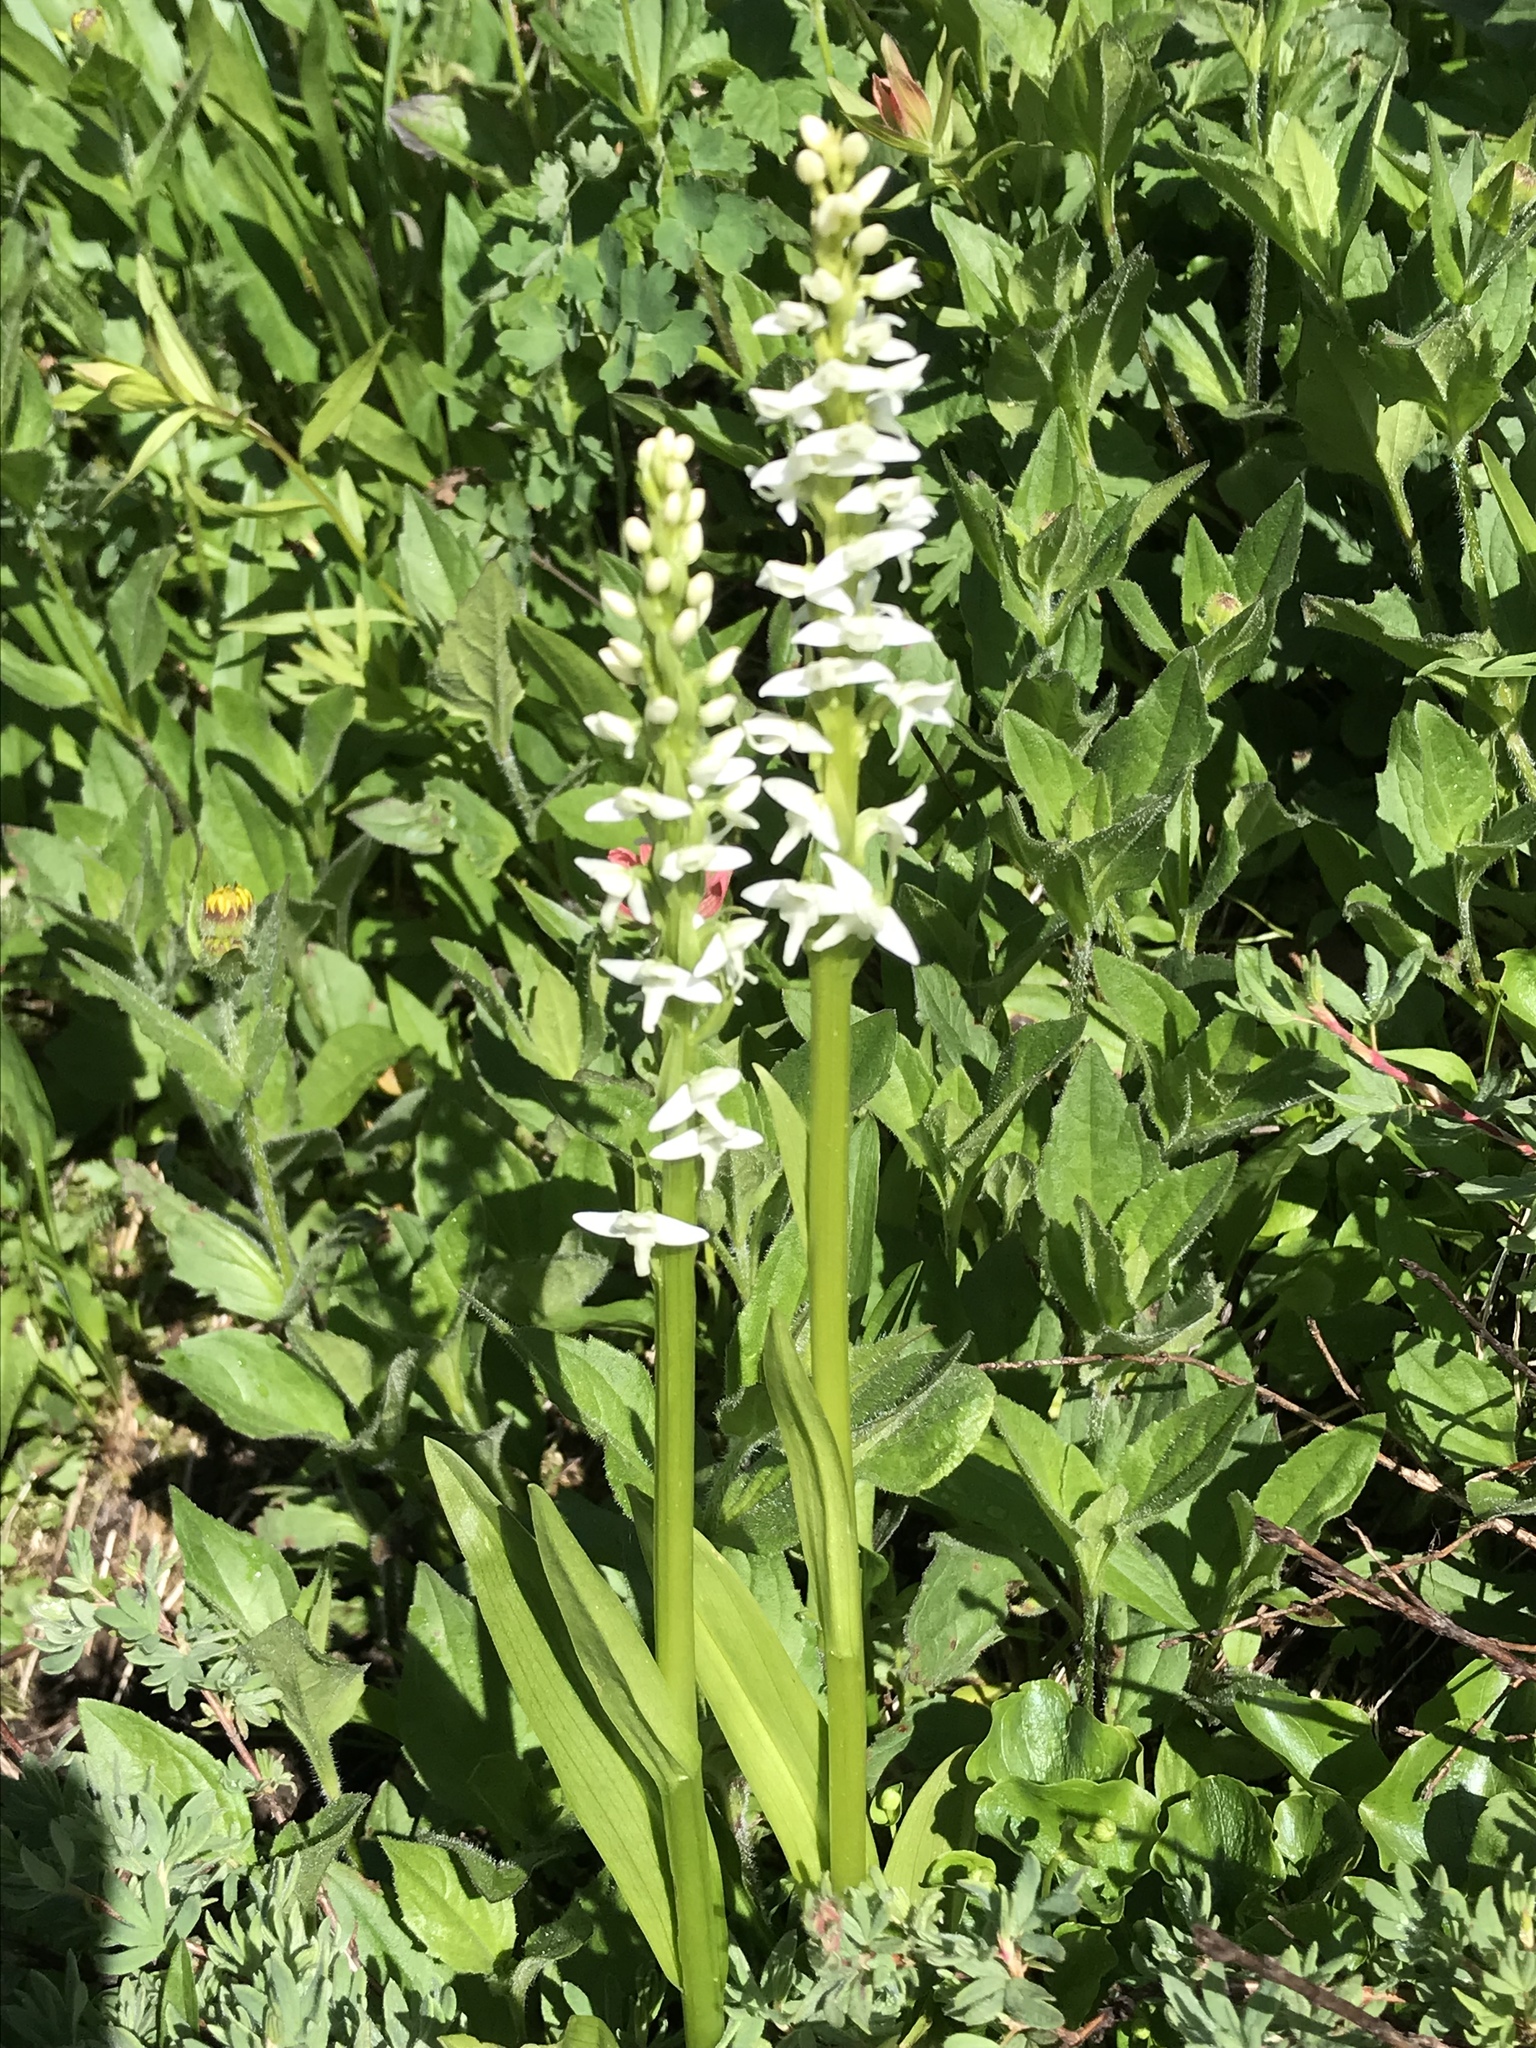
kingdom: Plantae
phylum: Tracheophyta
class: Liliopsida
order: Asparagales
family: Orchidaceae
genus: Platanthera
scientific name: Platanthera dilatata
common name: Bog candles
